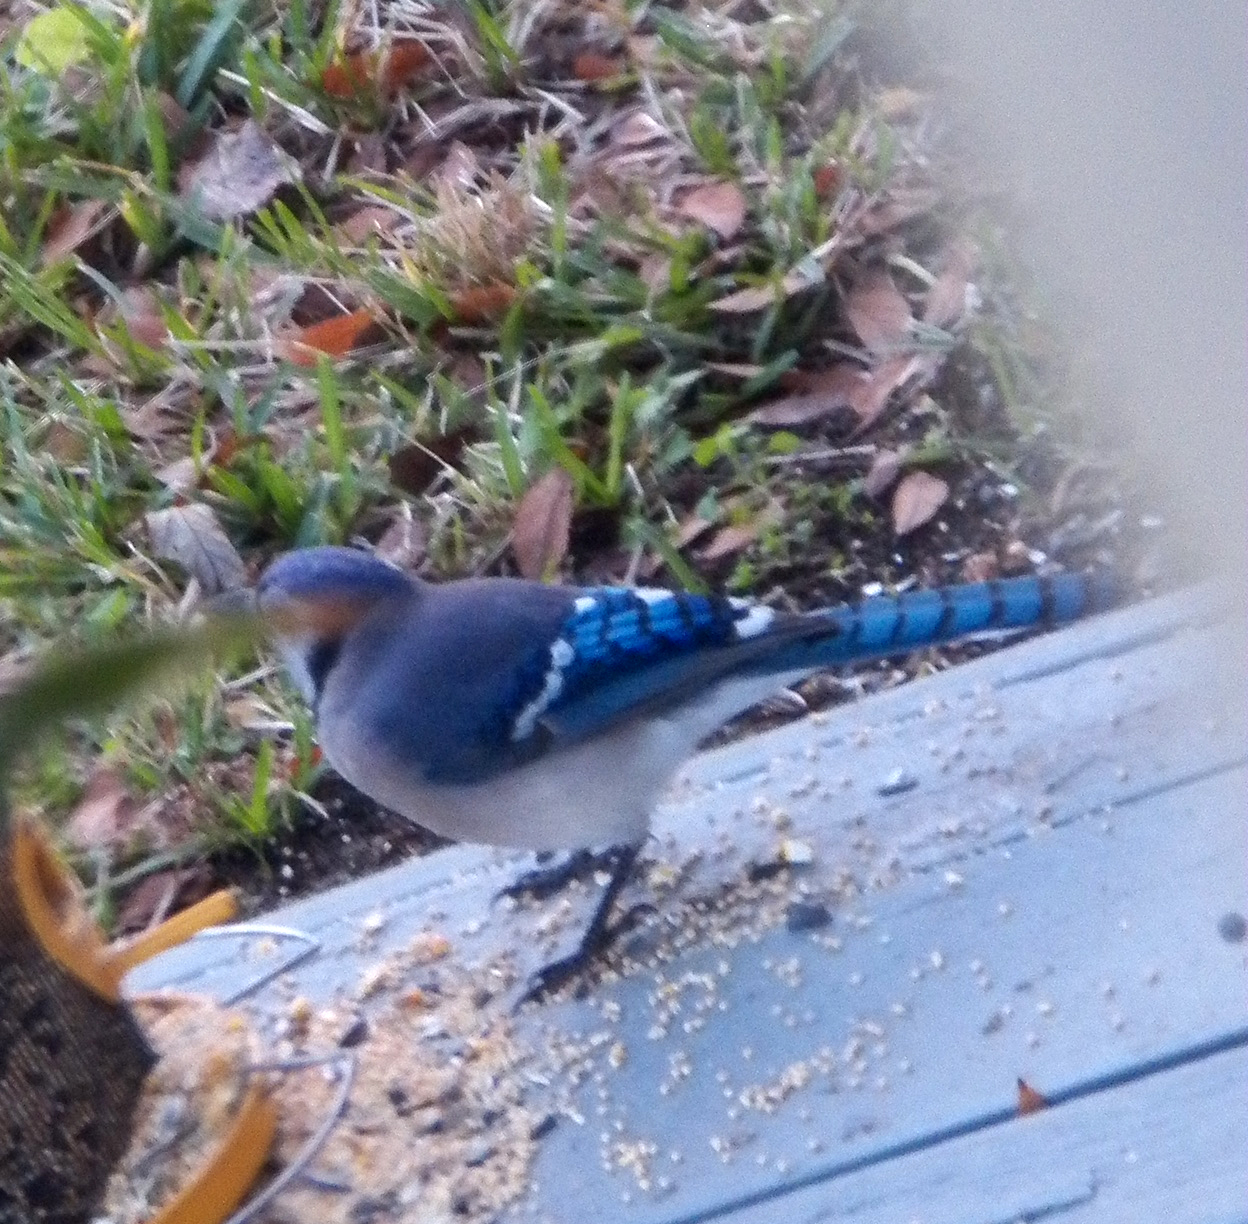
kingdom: Animalia
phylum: Chordata
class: Aves
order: Passeriformes
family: Corvidae
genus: Cyanocitta
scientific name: Cyanocitta cristata
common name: Blue jay
